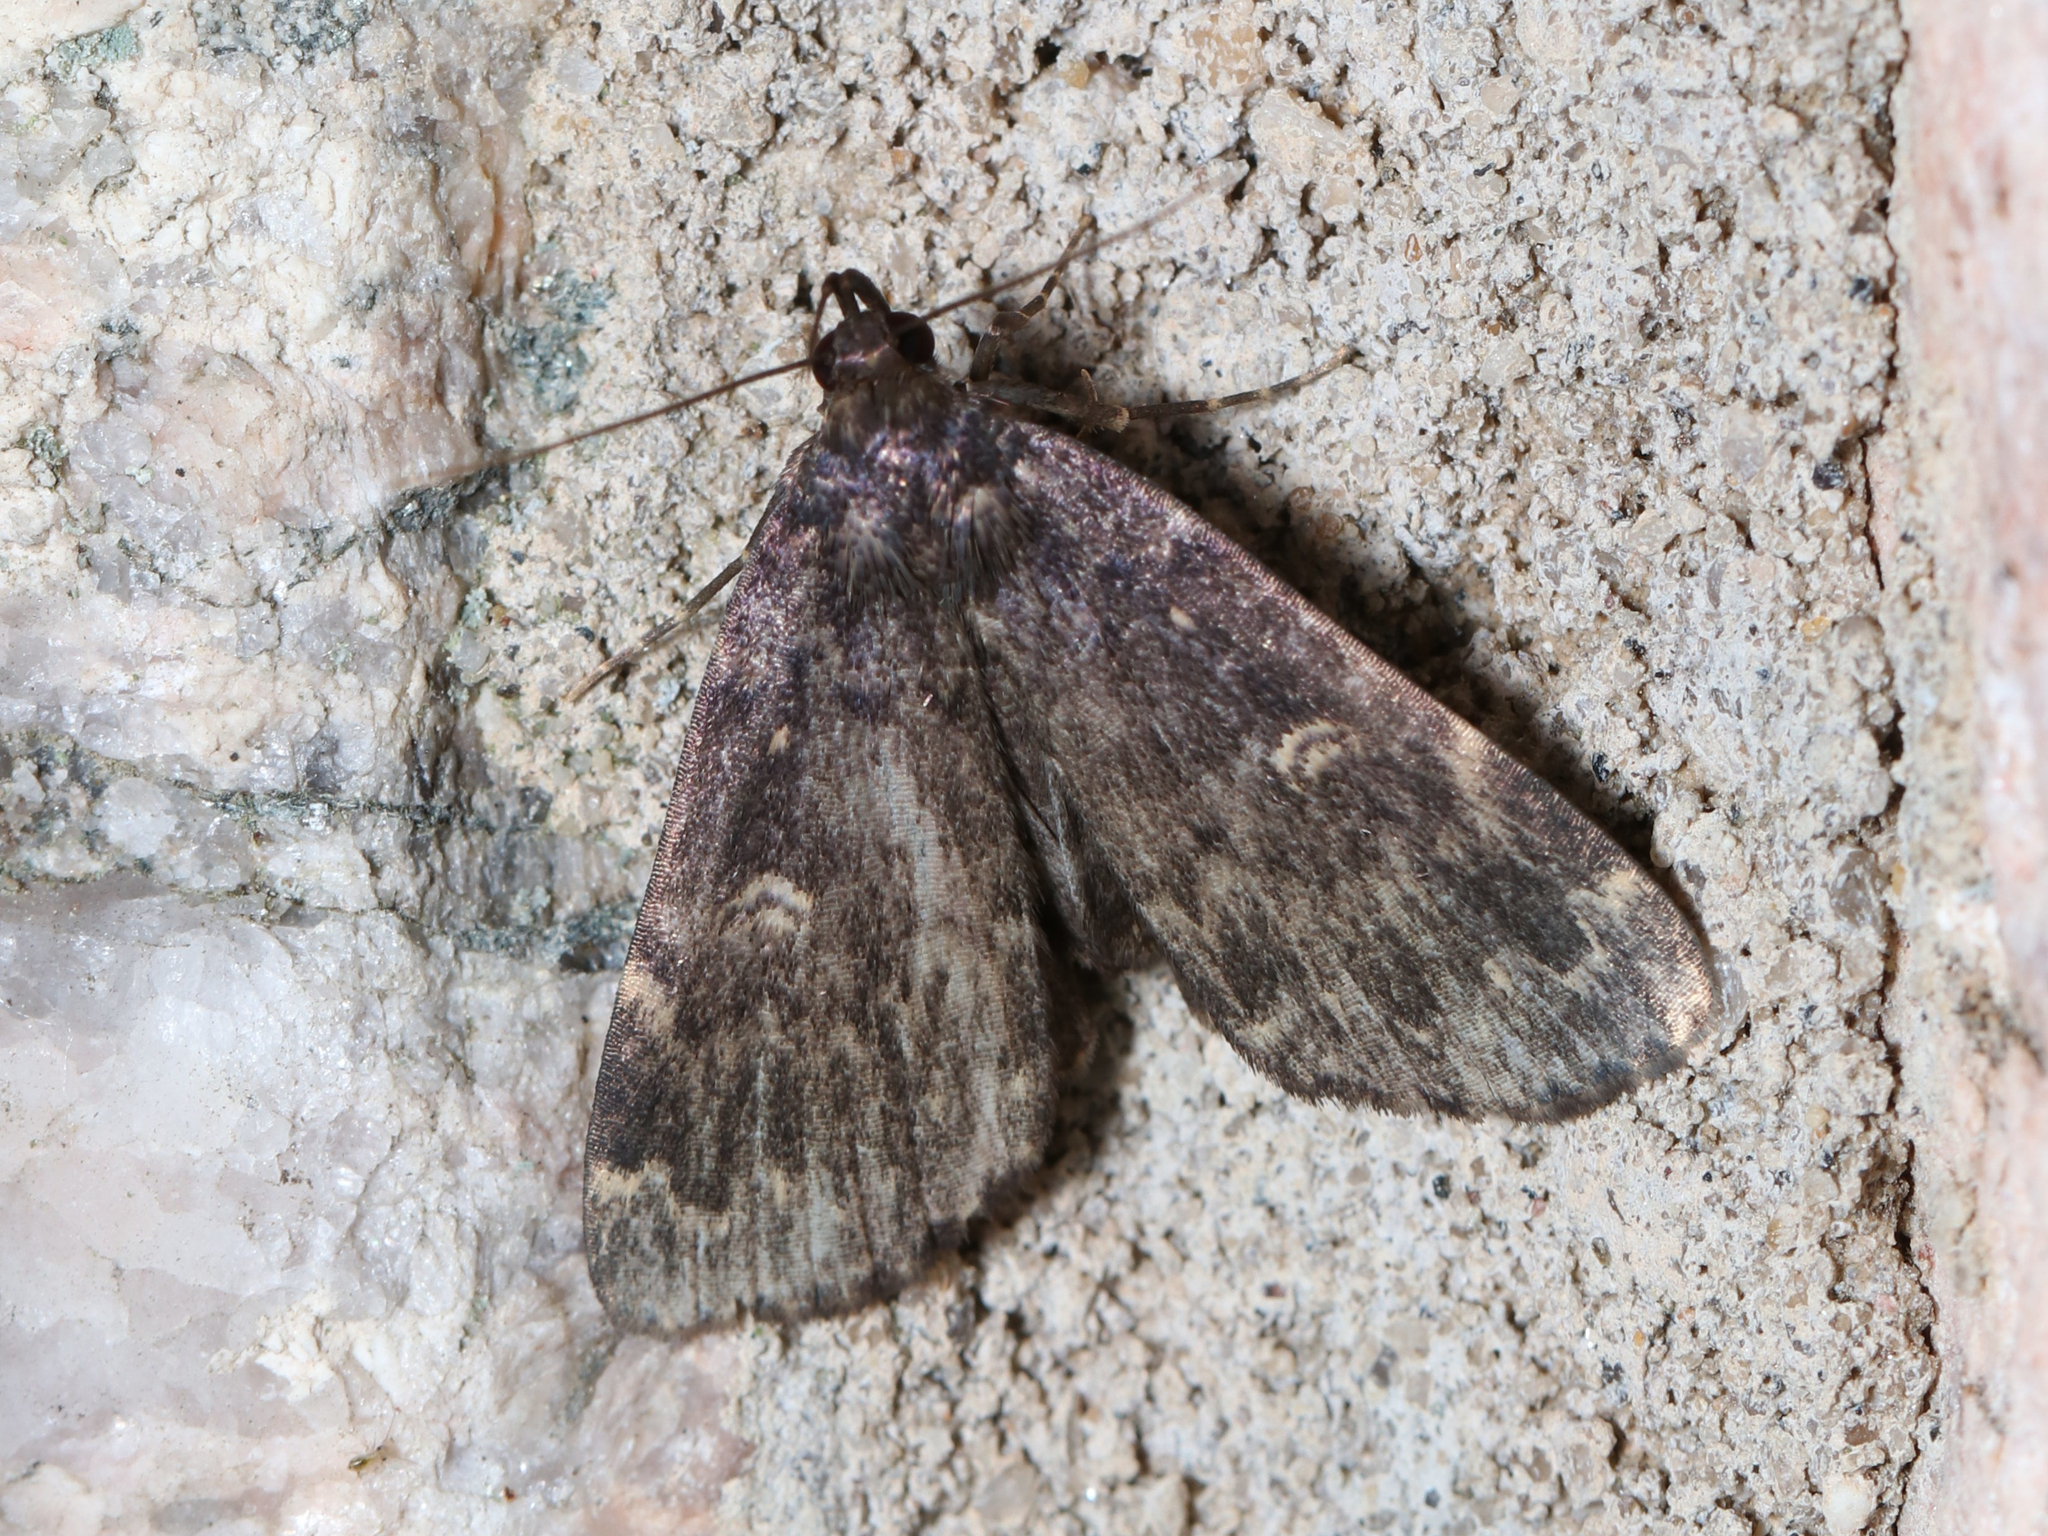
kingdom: Animalia
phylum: Arthropoda
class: Insecta
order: Lepidoptera
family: Erebidae
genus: Idia
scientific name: Idia lubricalis
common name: Twin-striped tabby
